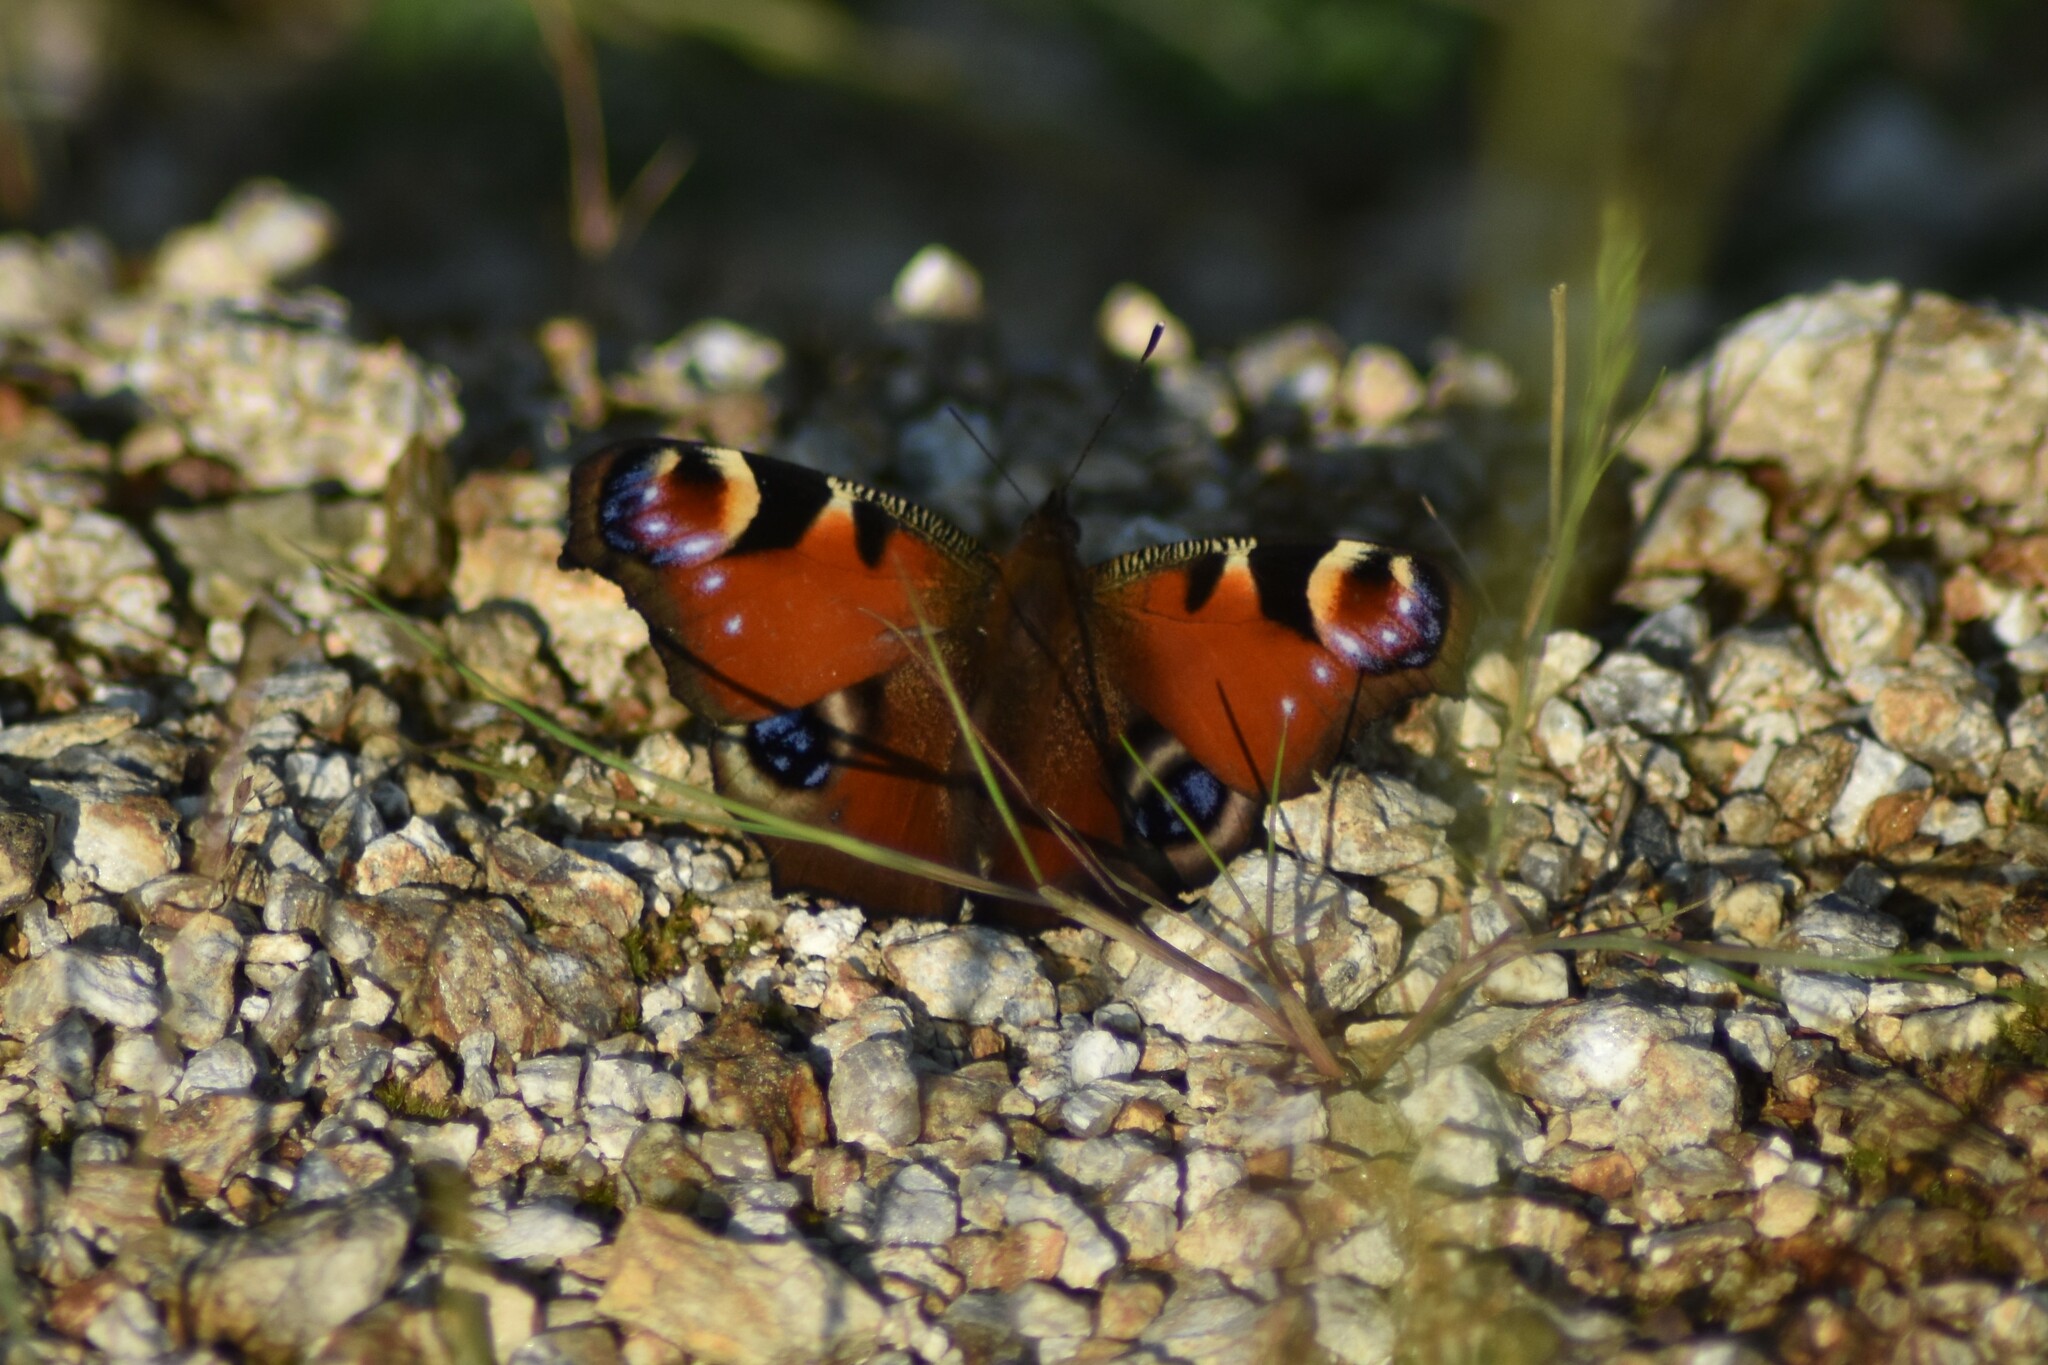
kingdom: Animalia
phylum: Arthropoda
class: Insecta
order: Lepidoptera
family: Nymphalidae
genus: Aglais
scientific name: Aglais io
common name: Peacock
